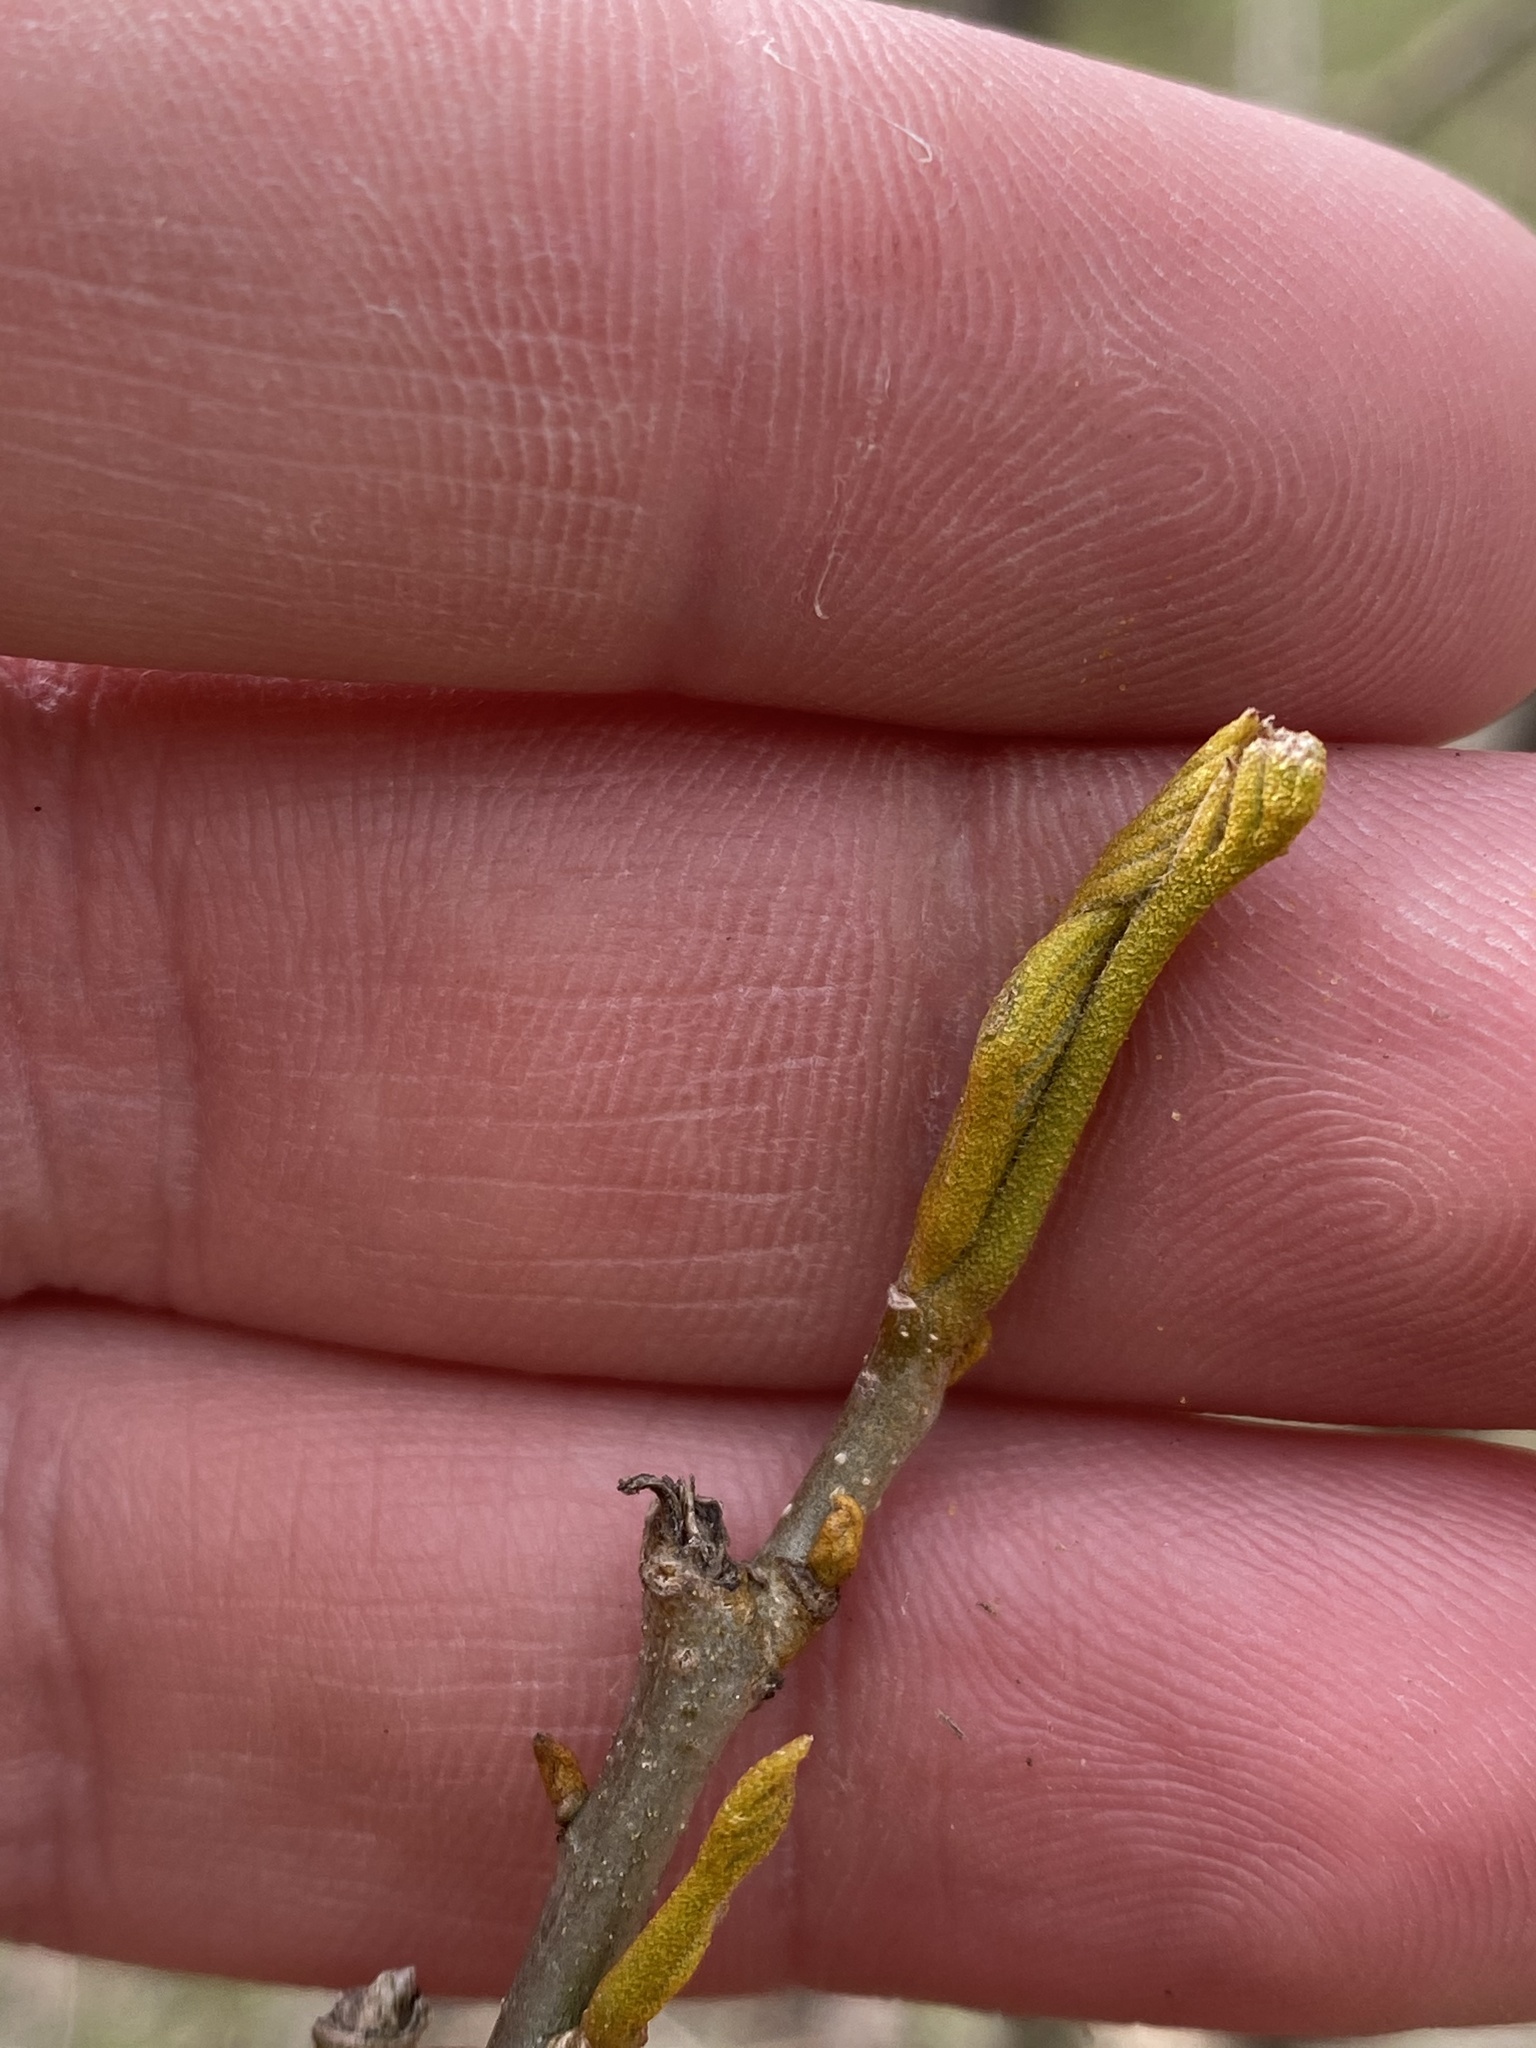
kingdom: Plantae
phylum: Tracheophyta
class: Magnoliopsida
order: Fagales
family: Juglandaceae
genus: Carya
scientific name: Carya cordiformis
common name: Bitternut hickory
